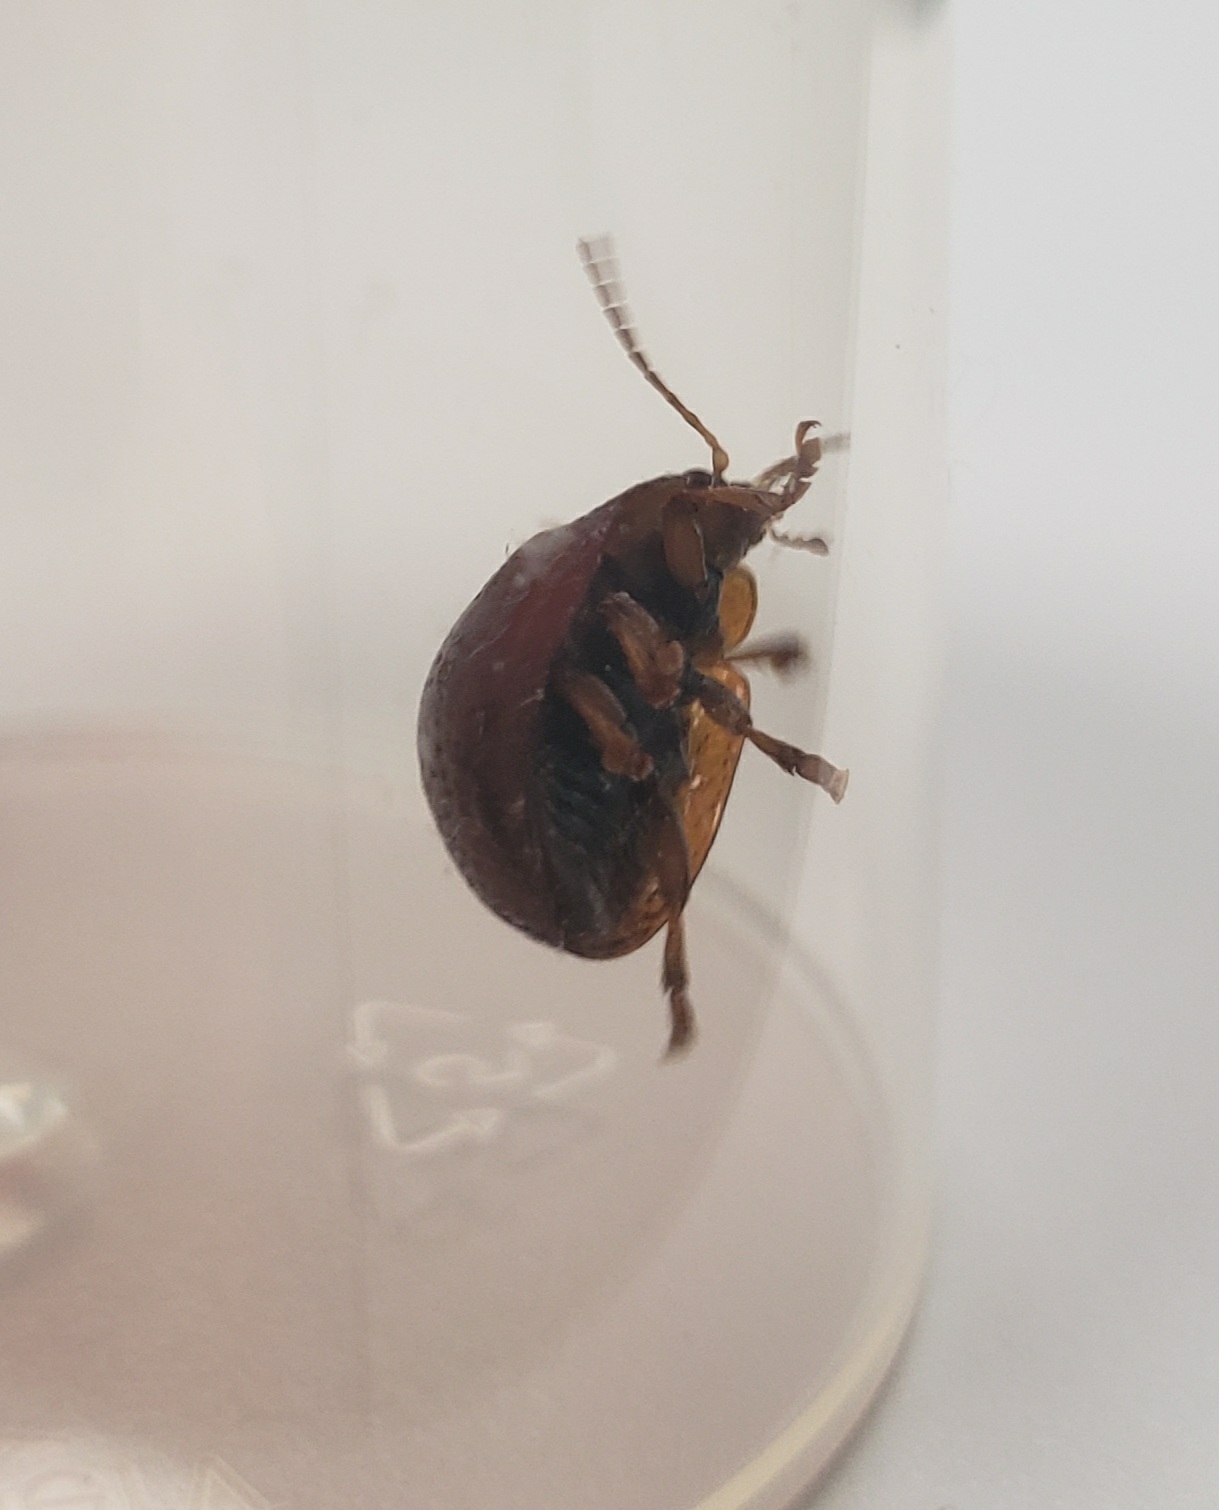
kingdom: Animalia
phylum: Arthropoda
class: Insecta
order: Coleoptera
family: Chrysomelidae
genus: Dicranosterna
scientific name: Dicranosterna
